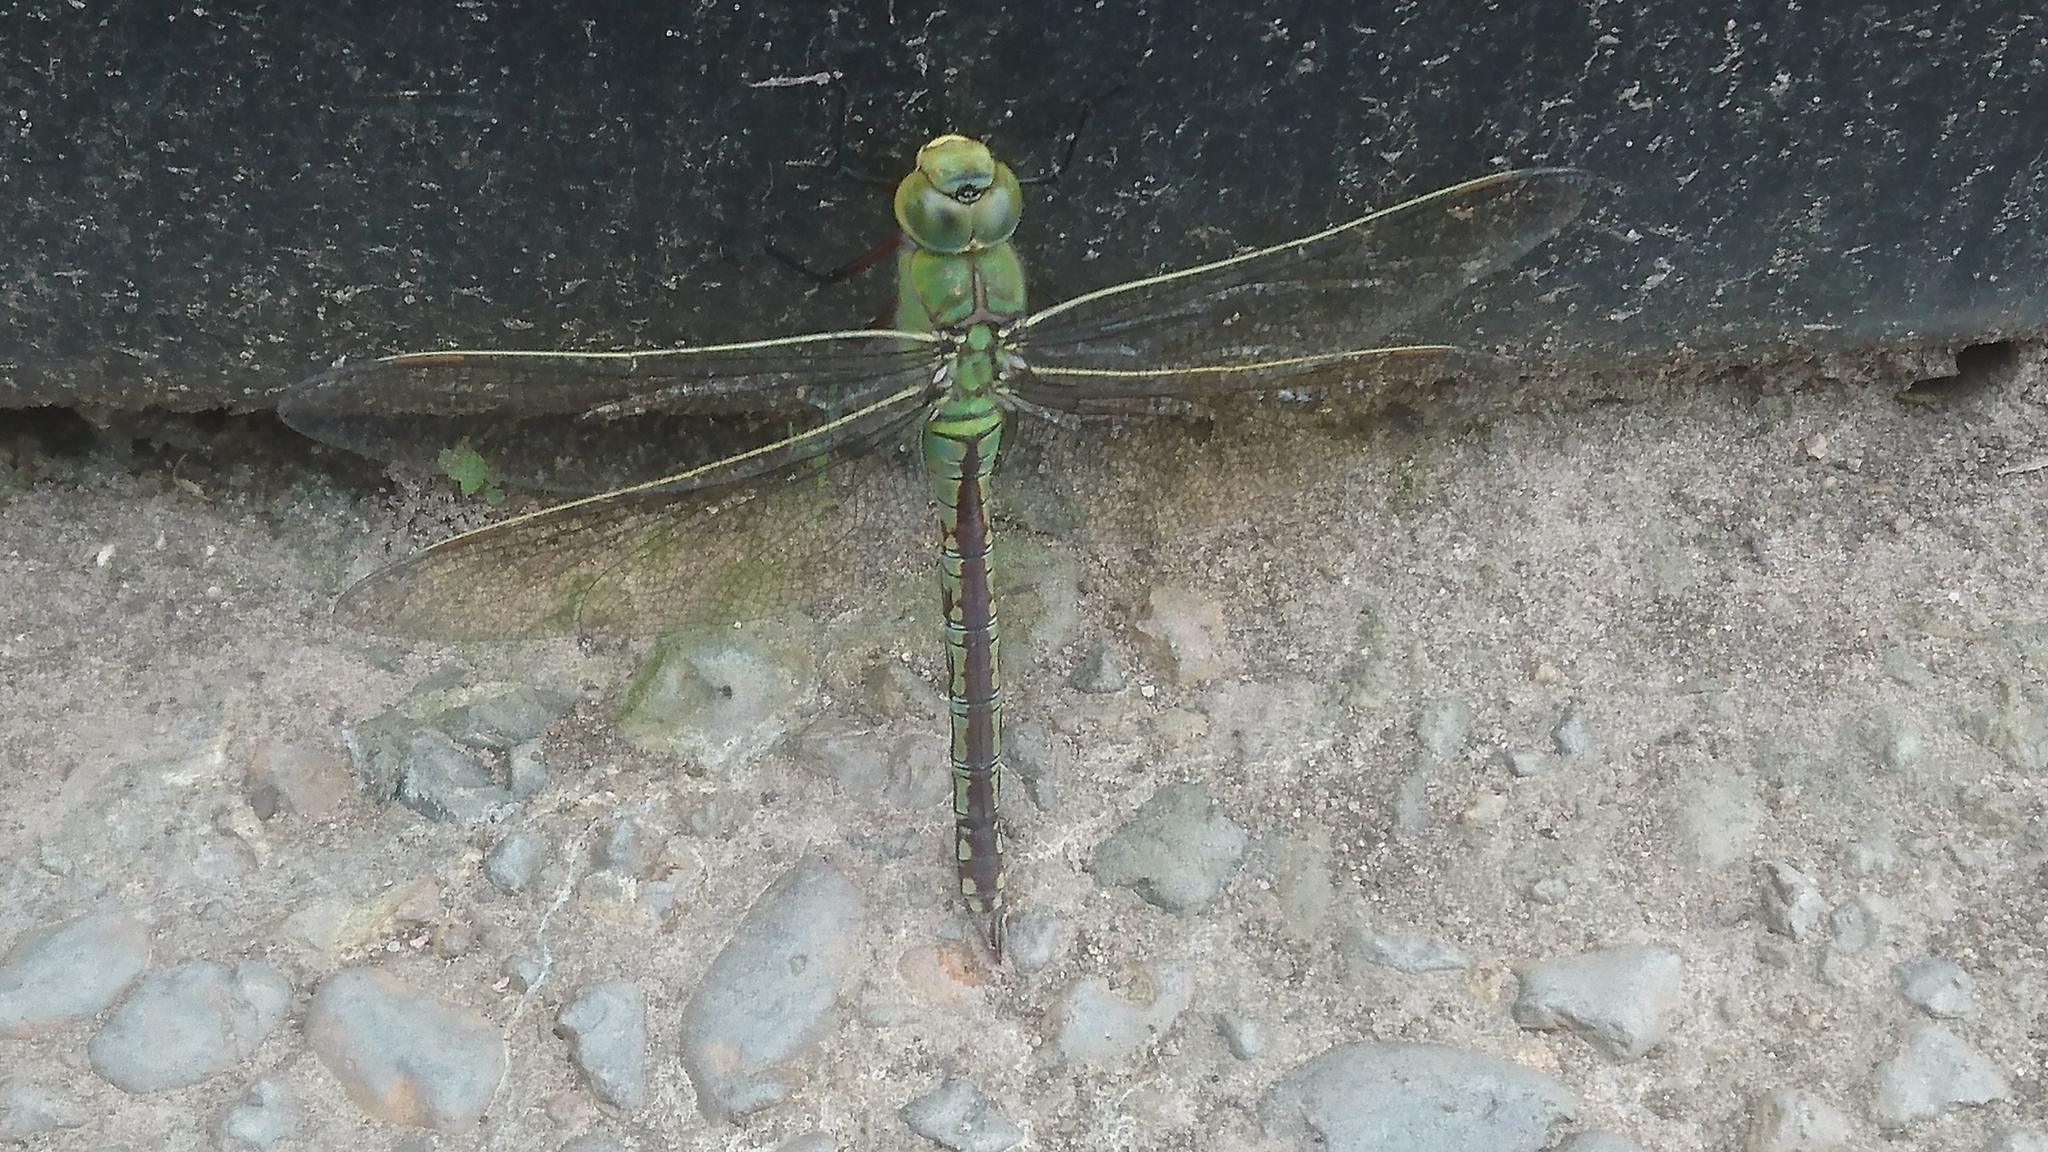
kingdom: Animalia
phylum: Arthropoda
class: Insecta
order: Odonata
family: Aeshnidae
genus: Anax
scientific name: Anax imperator
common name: Emperor dragonfly
